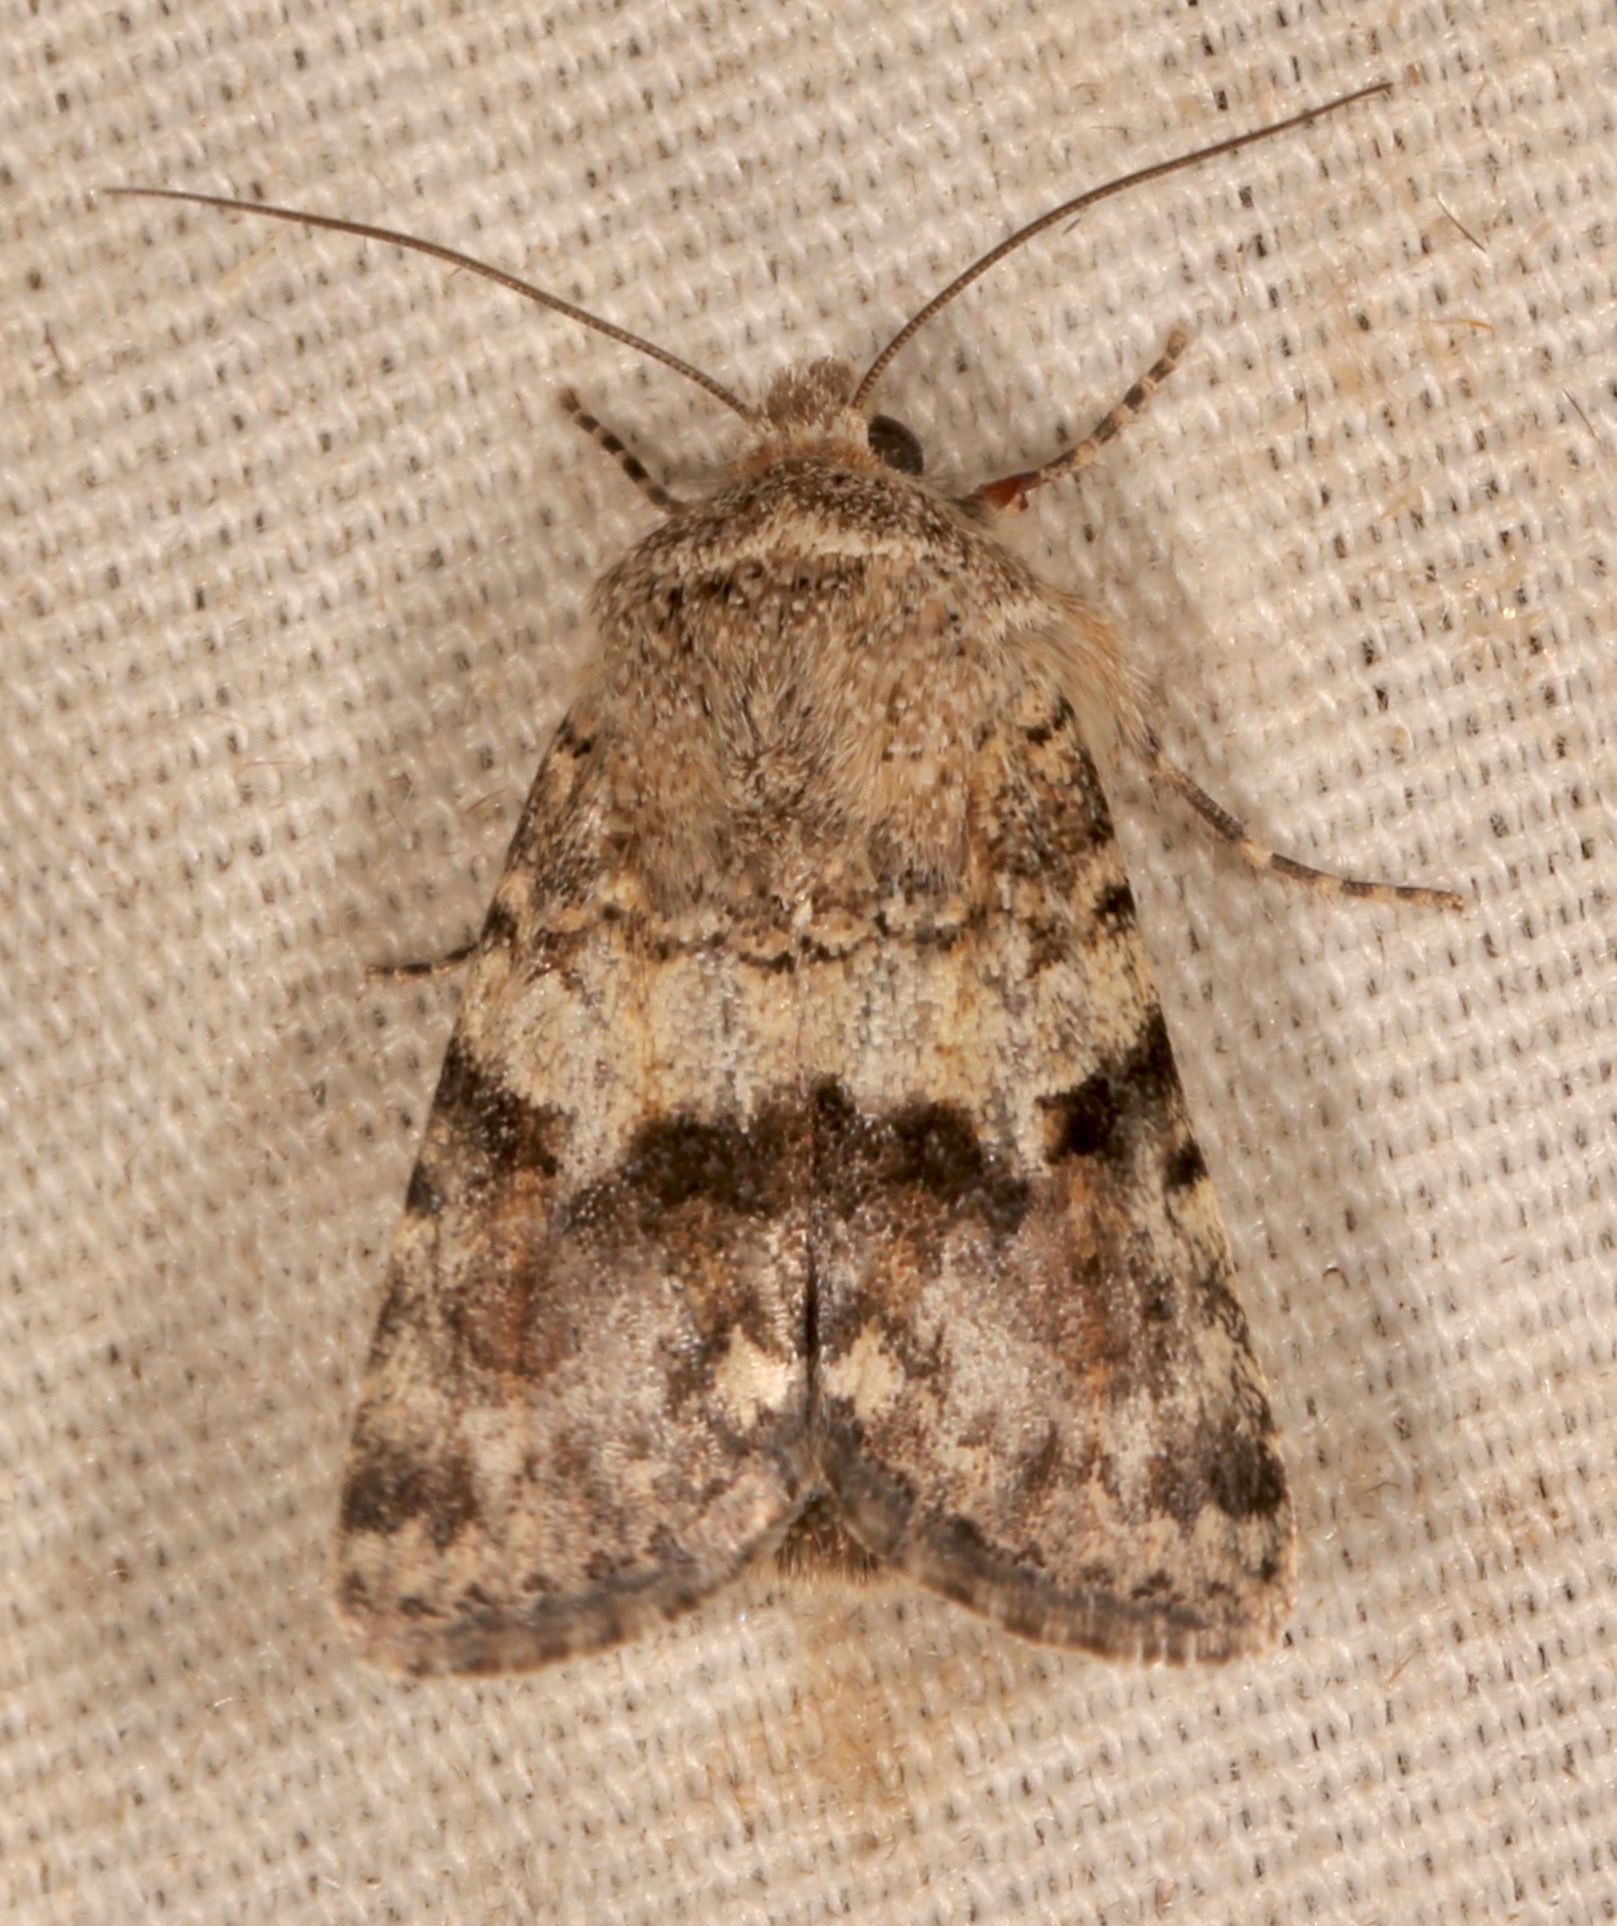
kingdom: Animalia
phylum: Arthropoda
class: Insecta
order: Lepidoptera
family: Noctuidae
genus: Sympistis
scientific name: Sympistis fasciata
